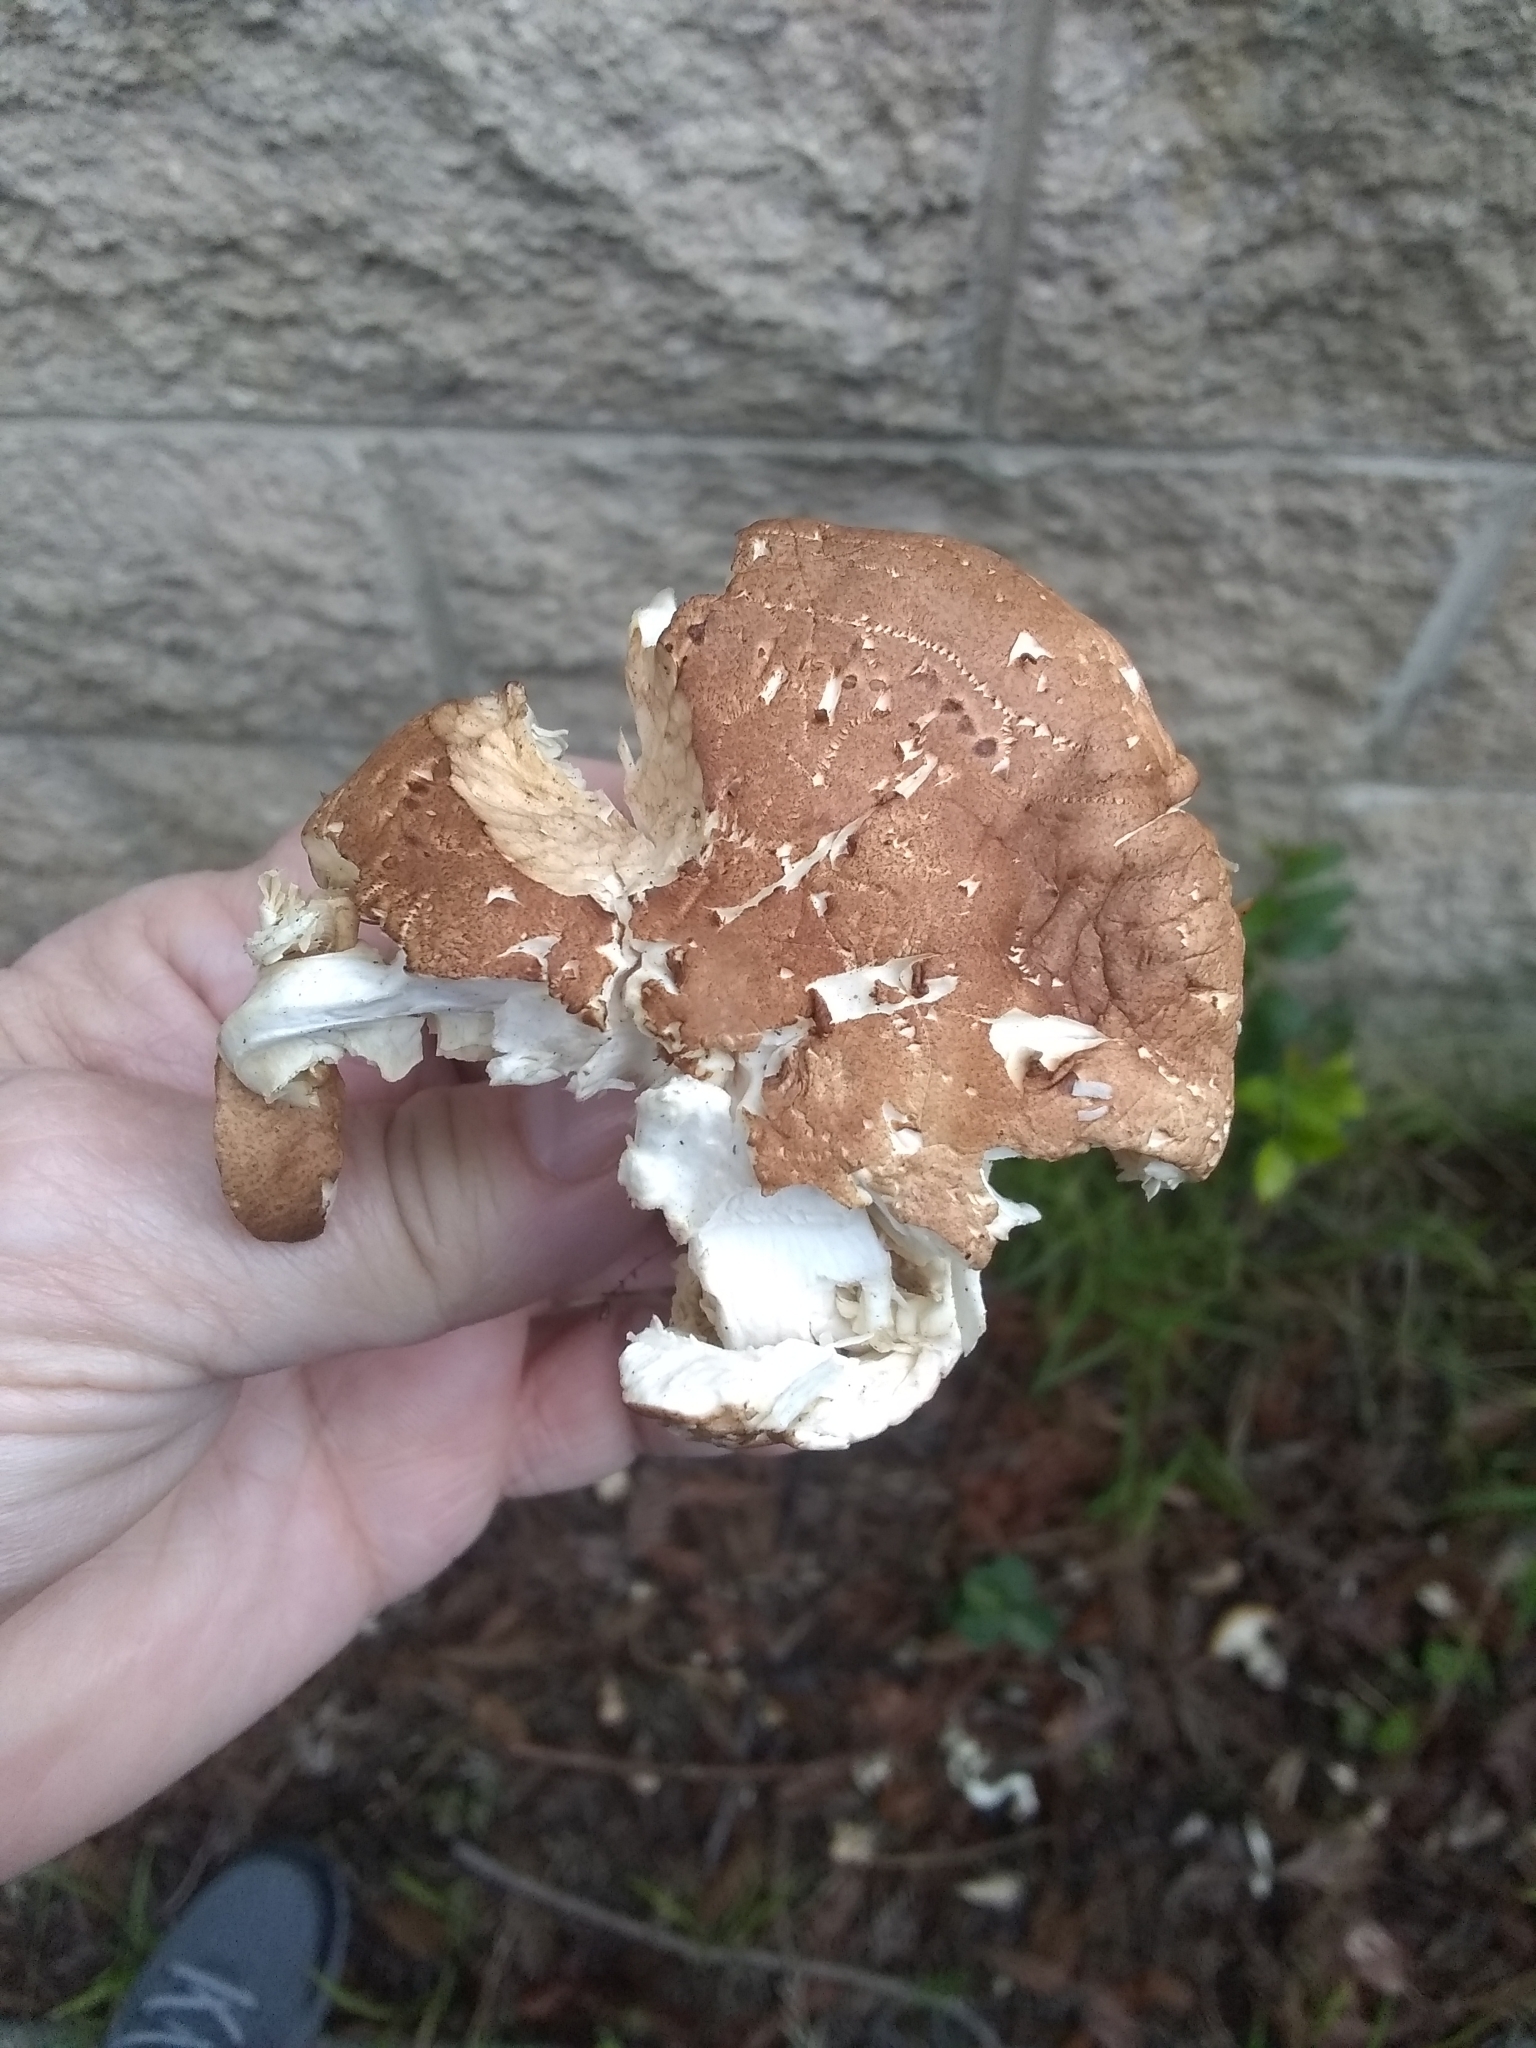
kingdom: Fungi
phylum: Basidiomycota
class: Agaricomycetes
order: Agaricales
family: Tricholomataceae
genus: Leucopaxillus
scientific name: Leucopaxillus gentianeus
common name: Bitter funnel
